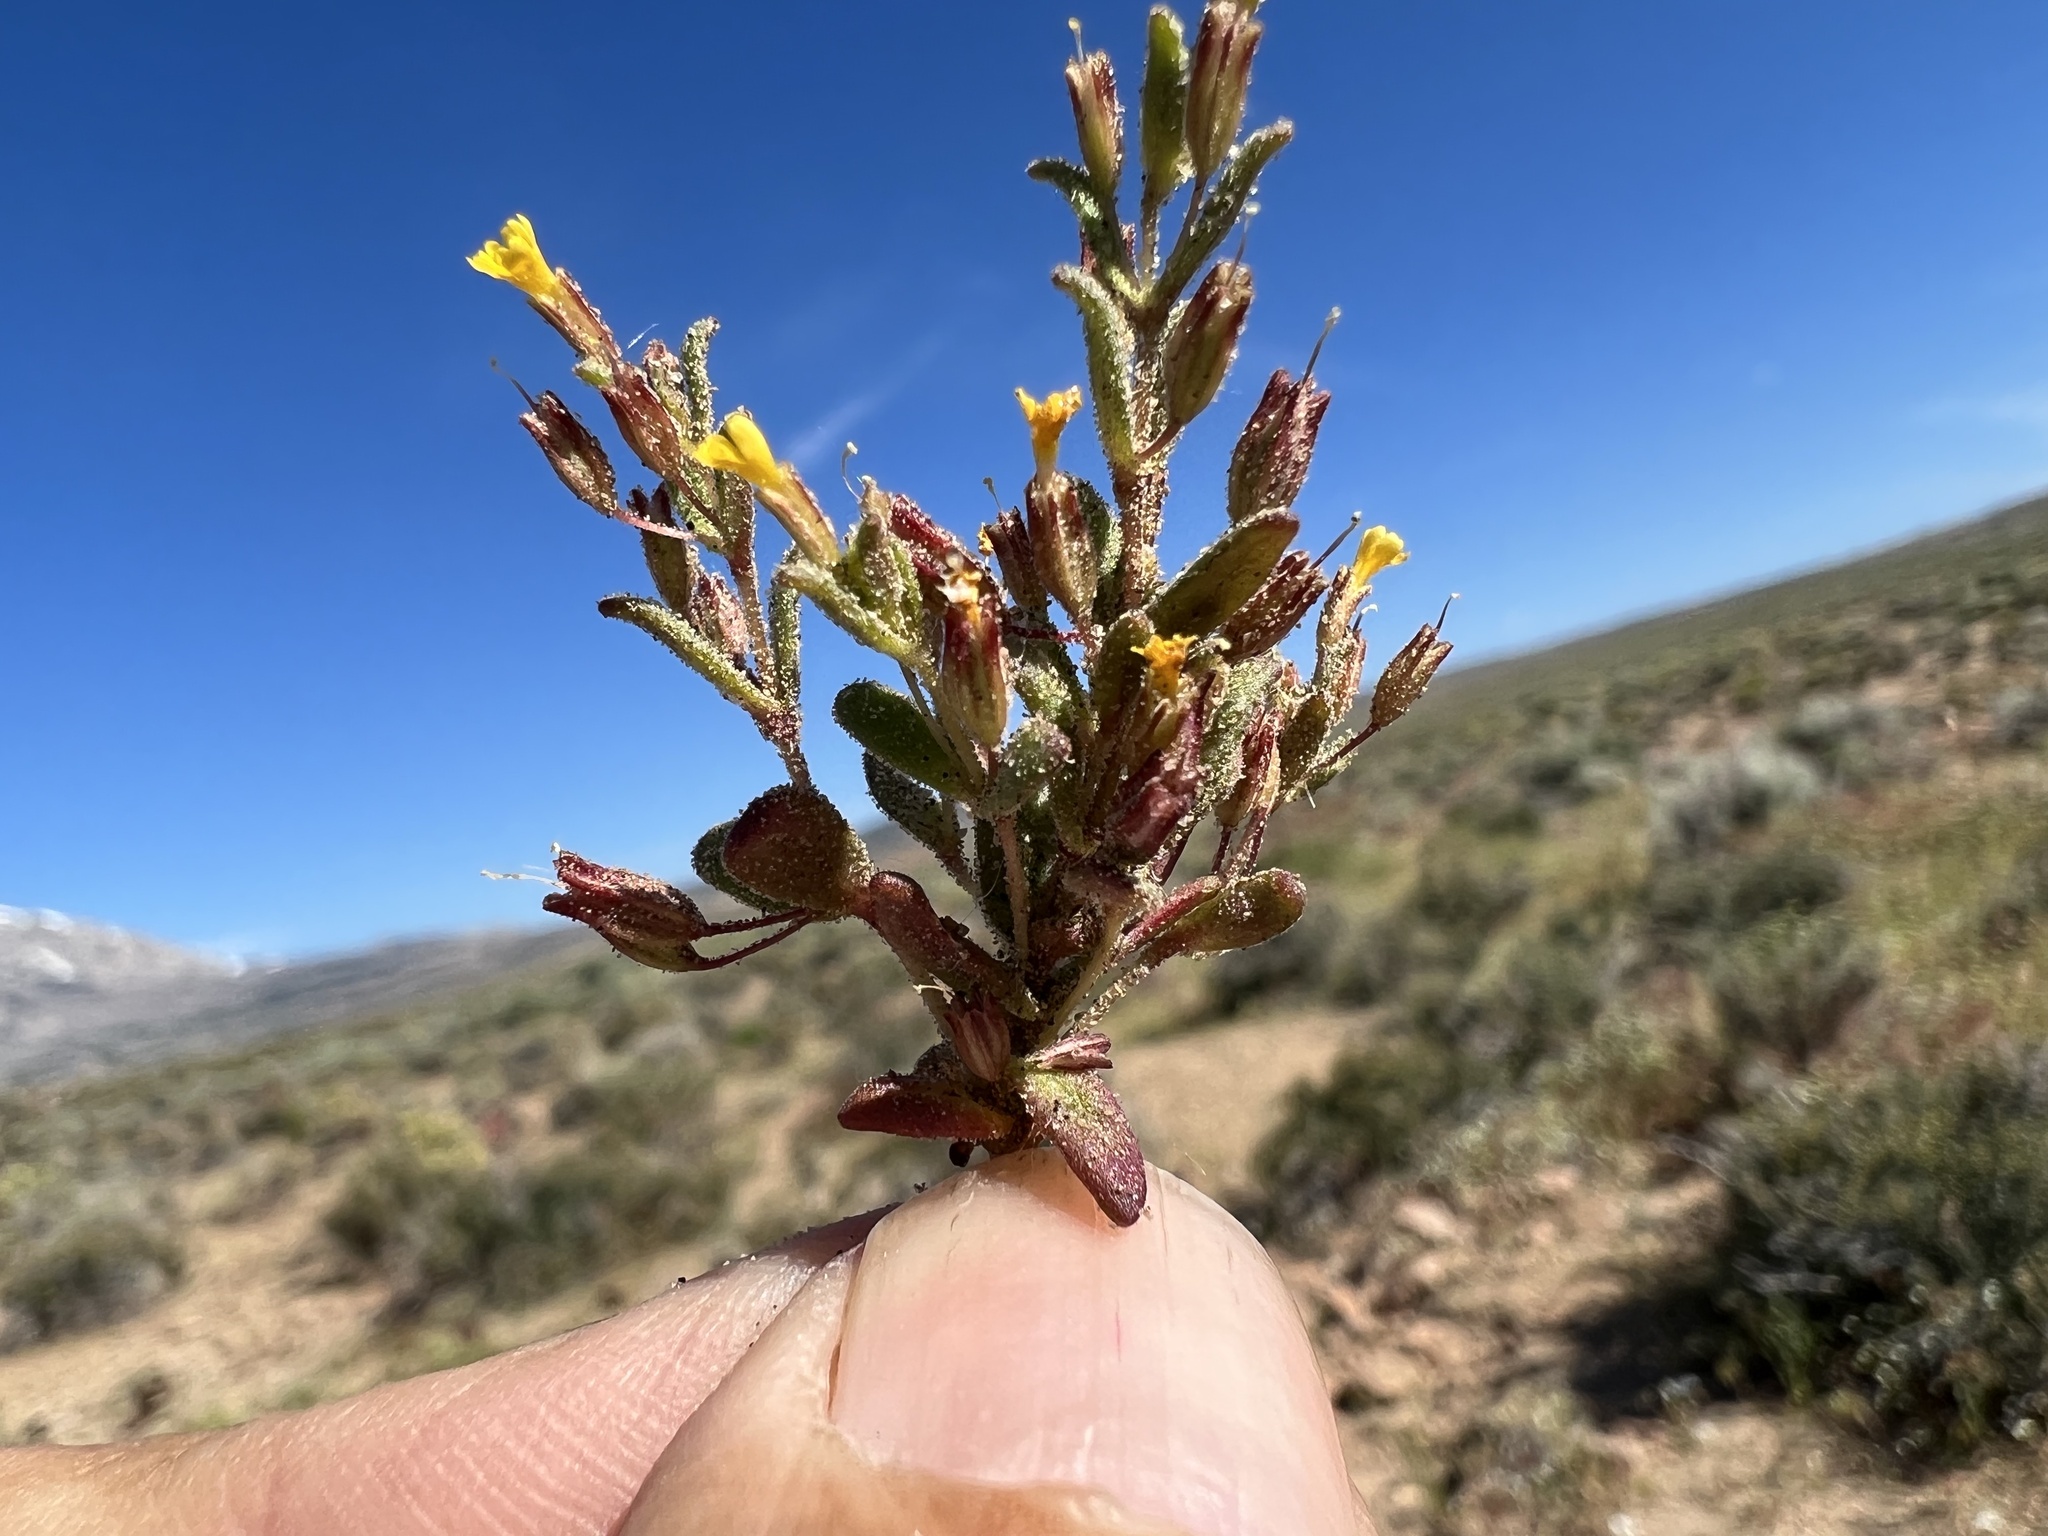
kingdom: Plantae
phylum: Tracheophyta
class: Magnoliopsida
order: Lamiales
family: Phrymaceae
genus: Erythranthe
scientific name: Erythranthe suksdorfii
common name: Suksdorf's monkeyflower
